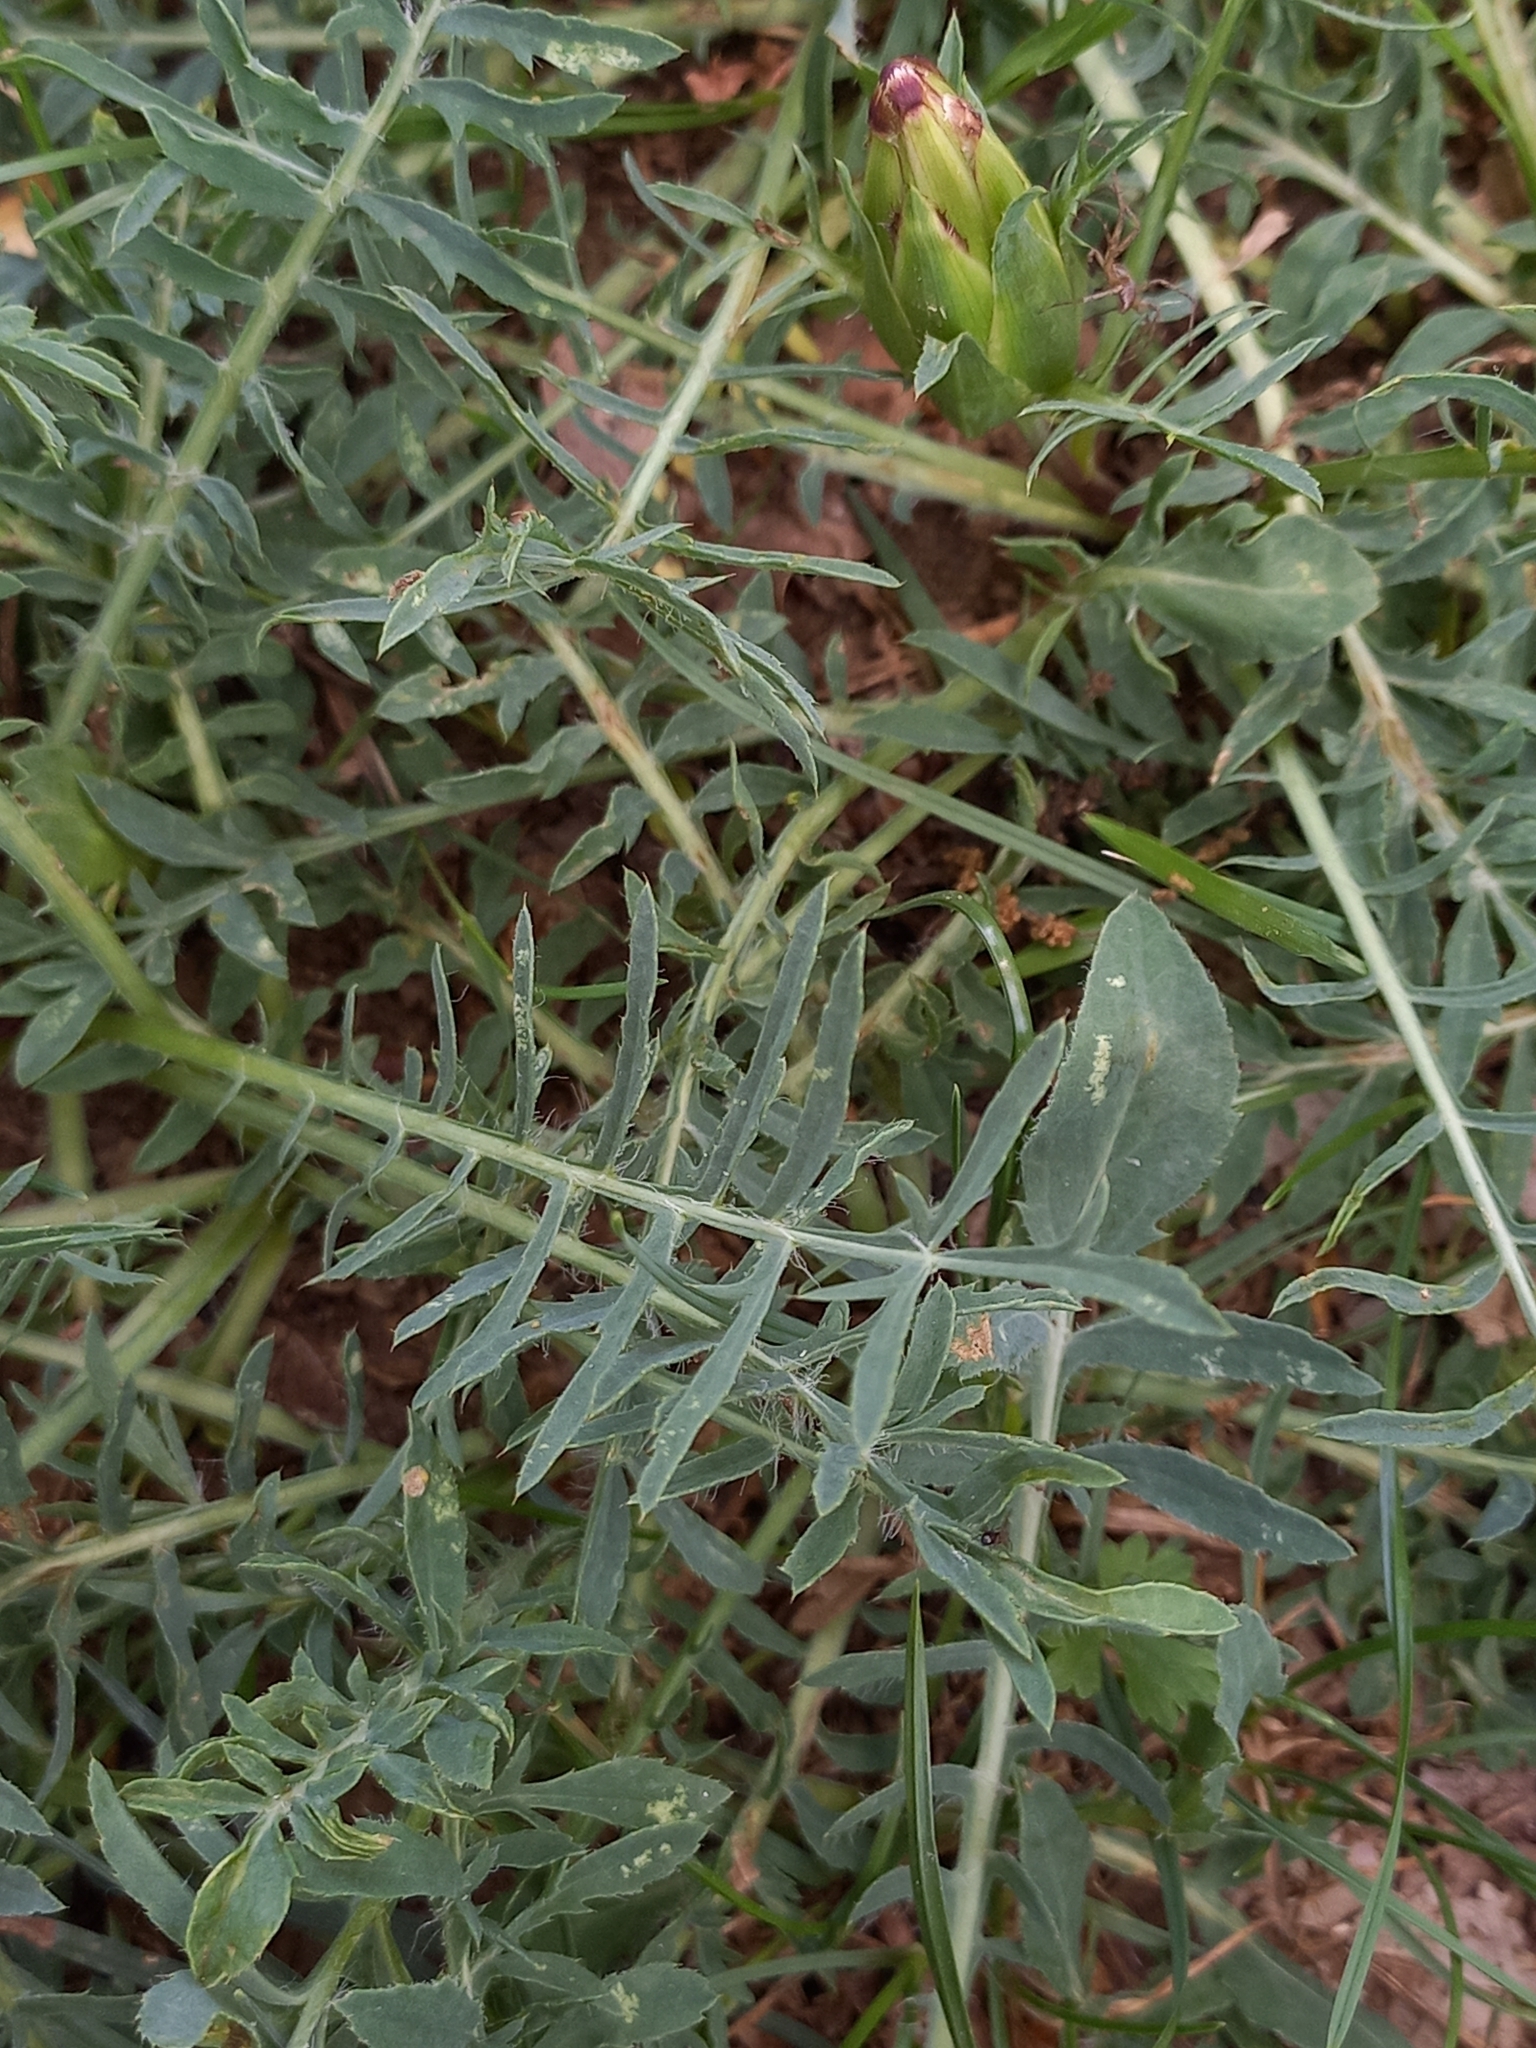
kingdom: Plantae
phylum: Tracheophyta
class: Magnoliopsida
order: Asterales
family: Asteraceae
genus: Carduncellus
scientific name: Carduncellus mitissimus
